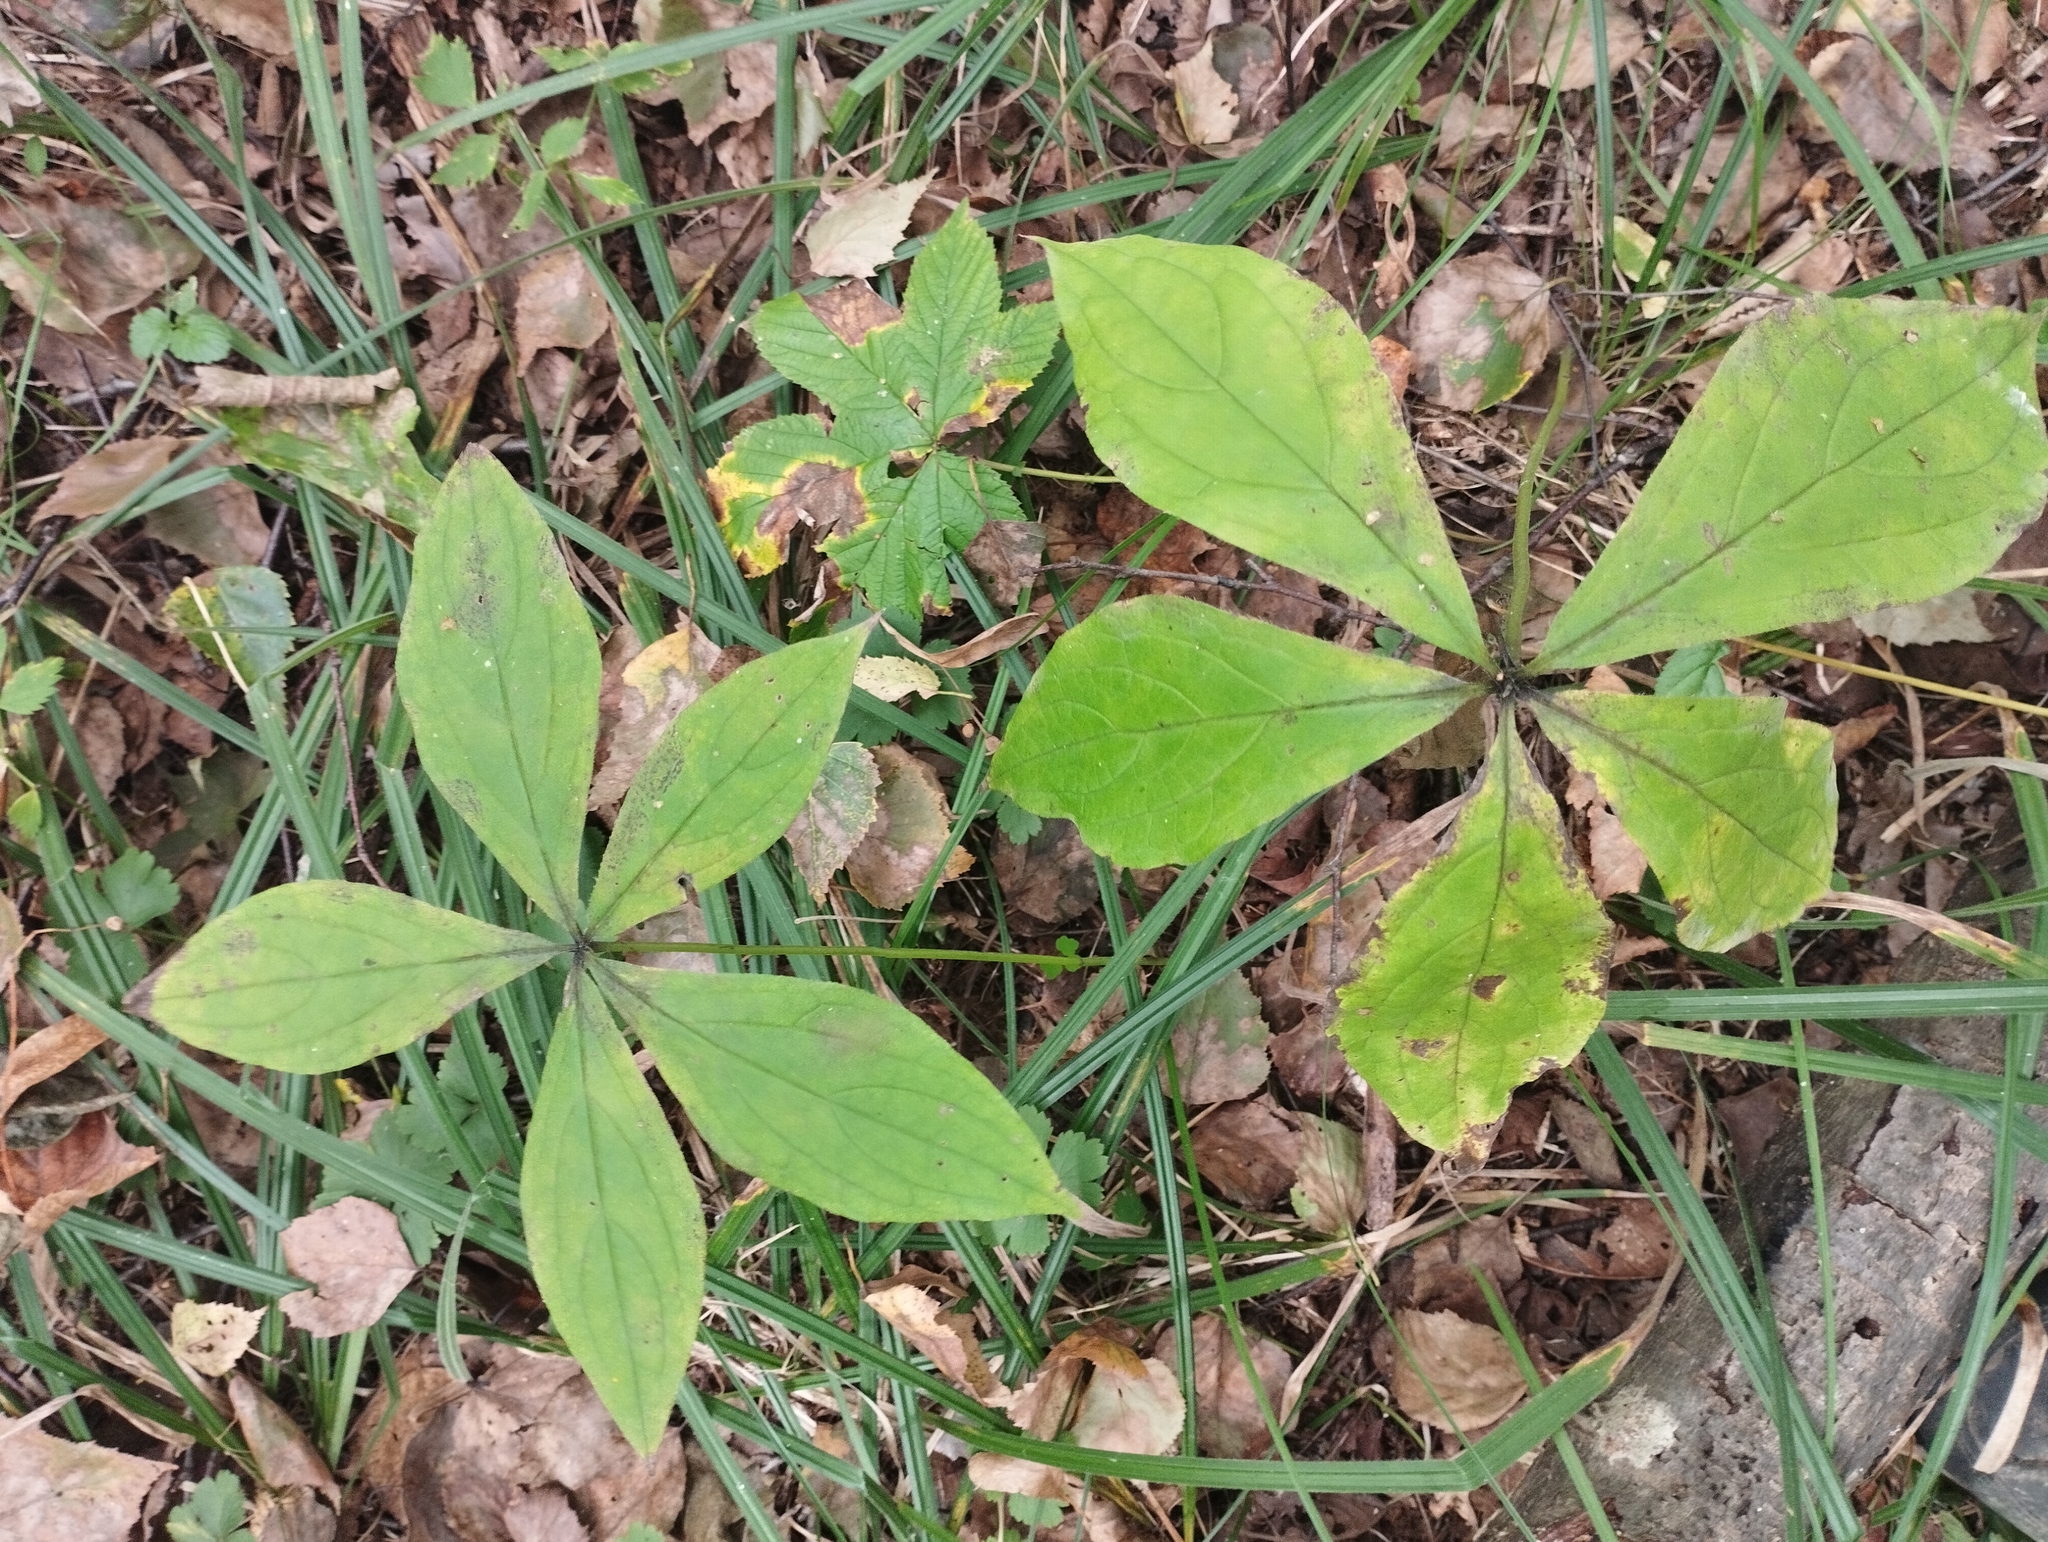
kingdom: Plantae
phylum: Tracheophyta
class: Magnoliopsida
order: Boraginales
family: Boraginaceae
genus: Brachybotrys
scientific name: Brachybotrys paridiformis
